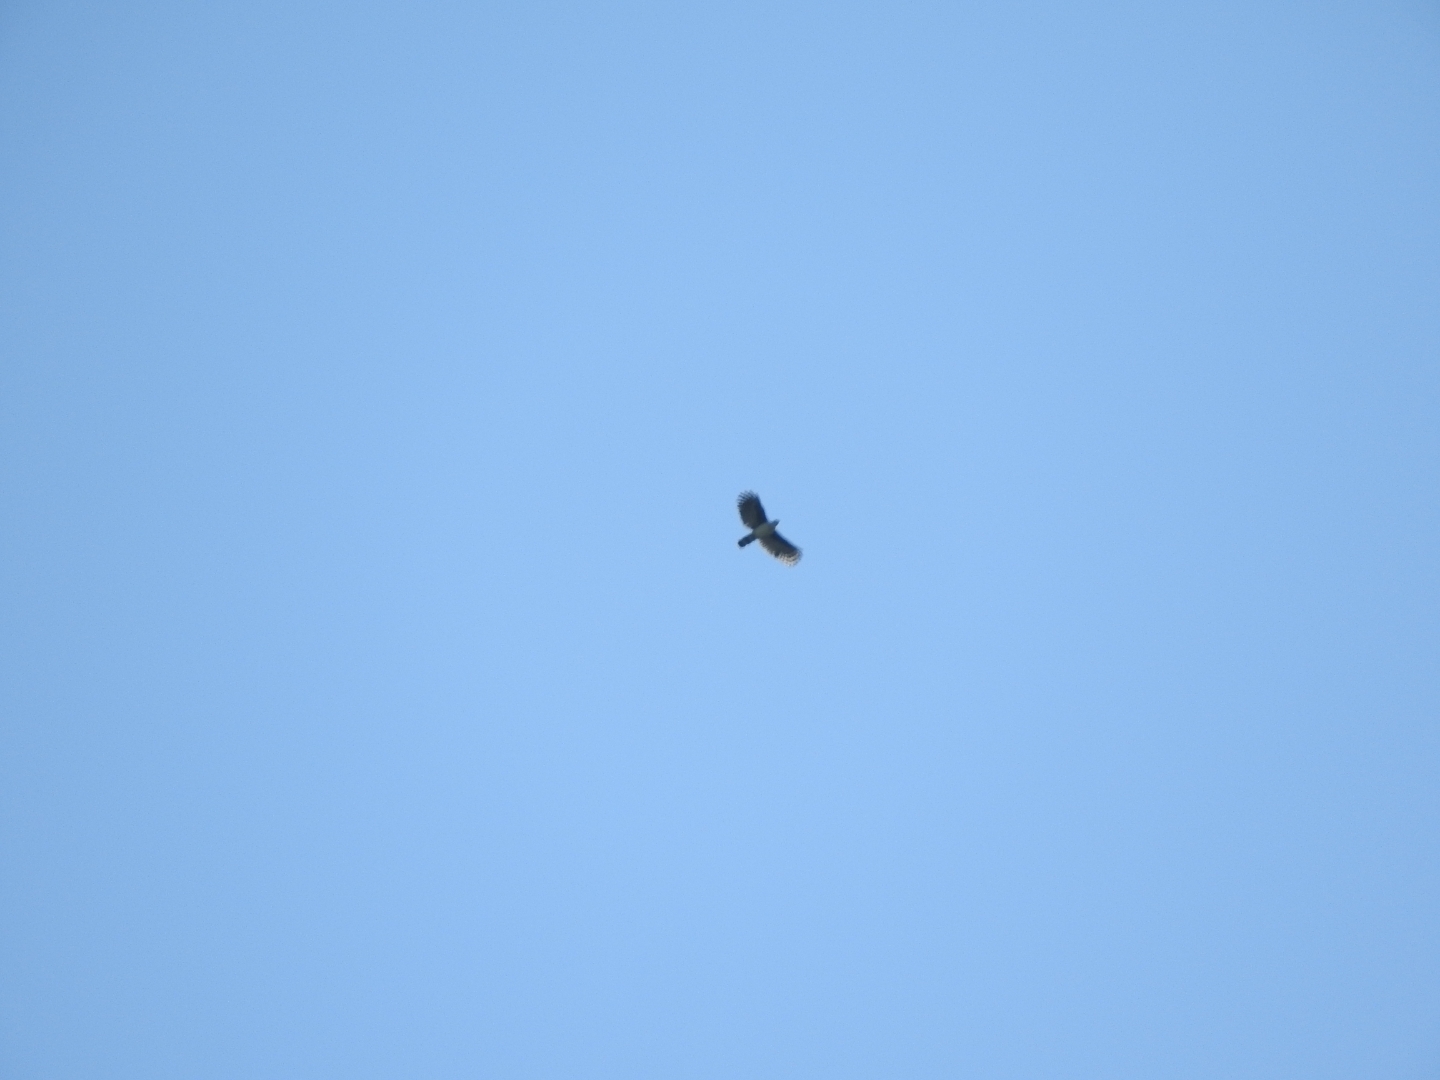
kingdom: Animalia
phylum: Chordata
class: Aves
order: Accipitriformes
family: Accipitridae
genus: Leptodon
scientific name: Leptodon cayanensis
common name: Gray-headed kite
